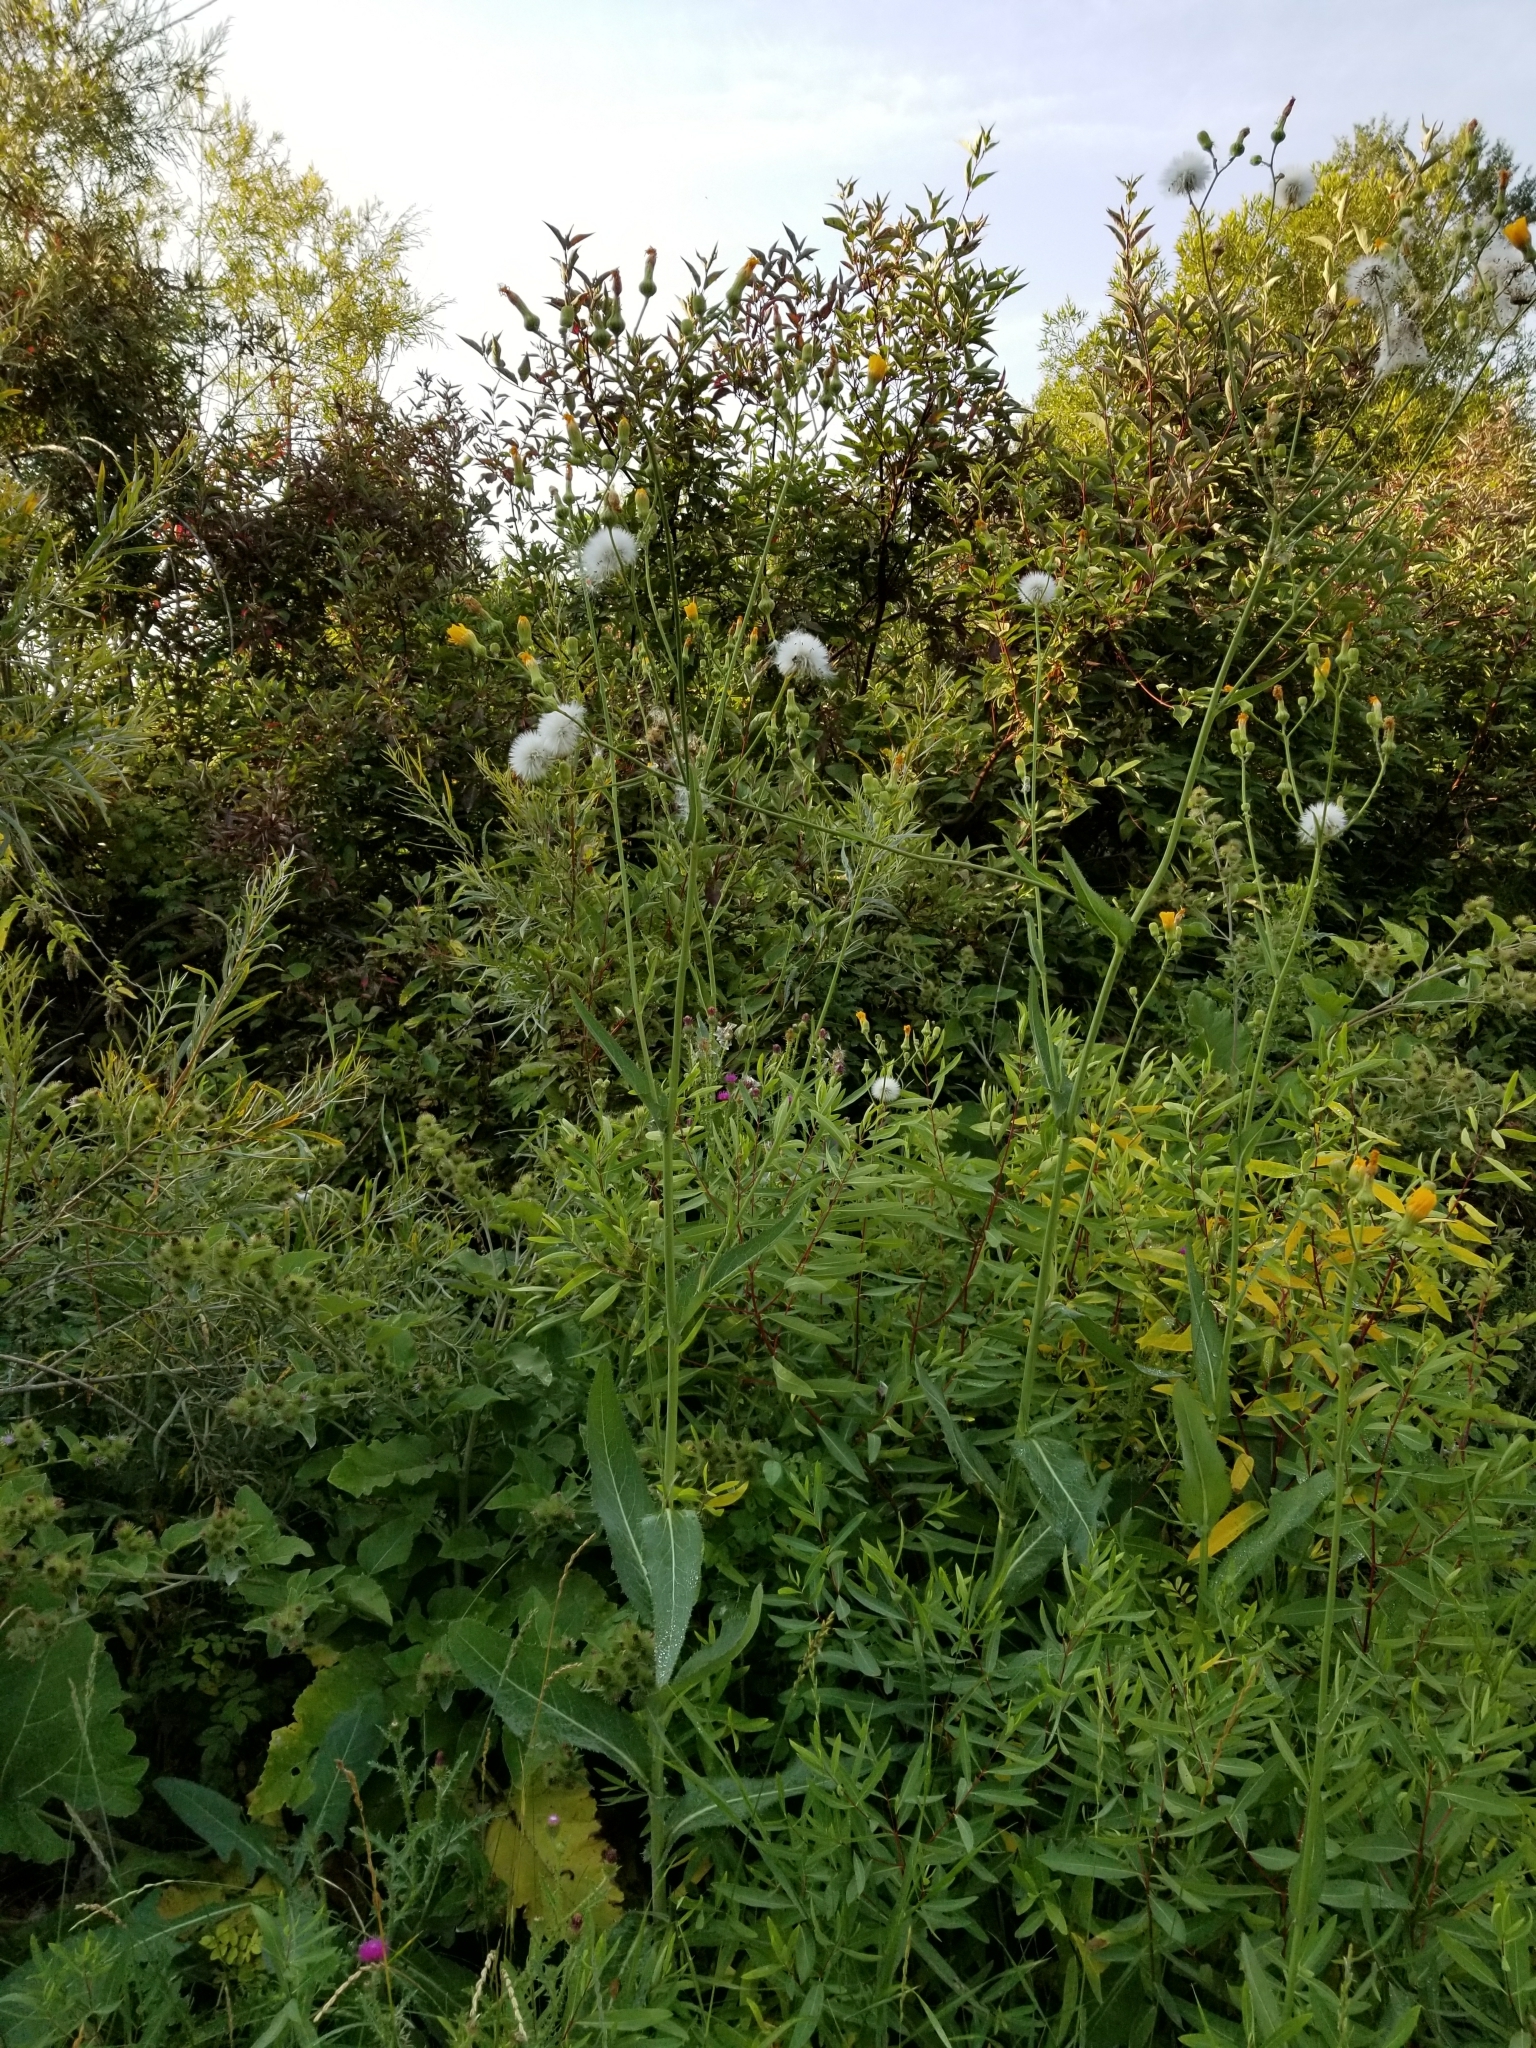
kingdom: Plantae
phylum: Tracheophyta
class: Magnoliopsida
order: Asterales
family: Asteraceae
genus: Sonchus
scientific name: Sonchus arvensis
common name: Perennial sow-thistle
